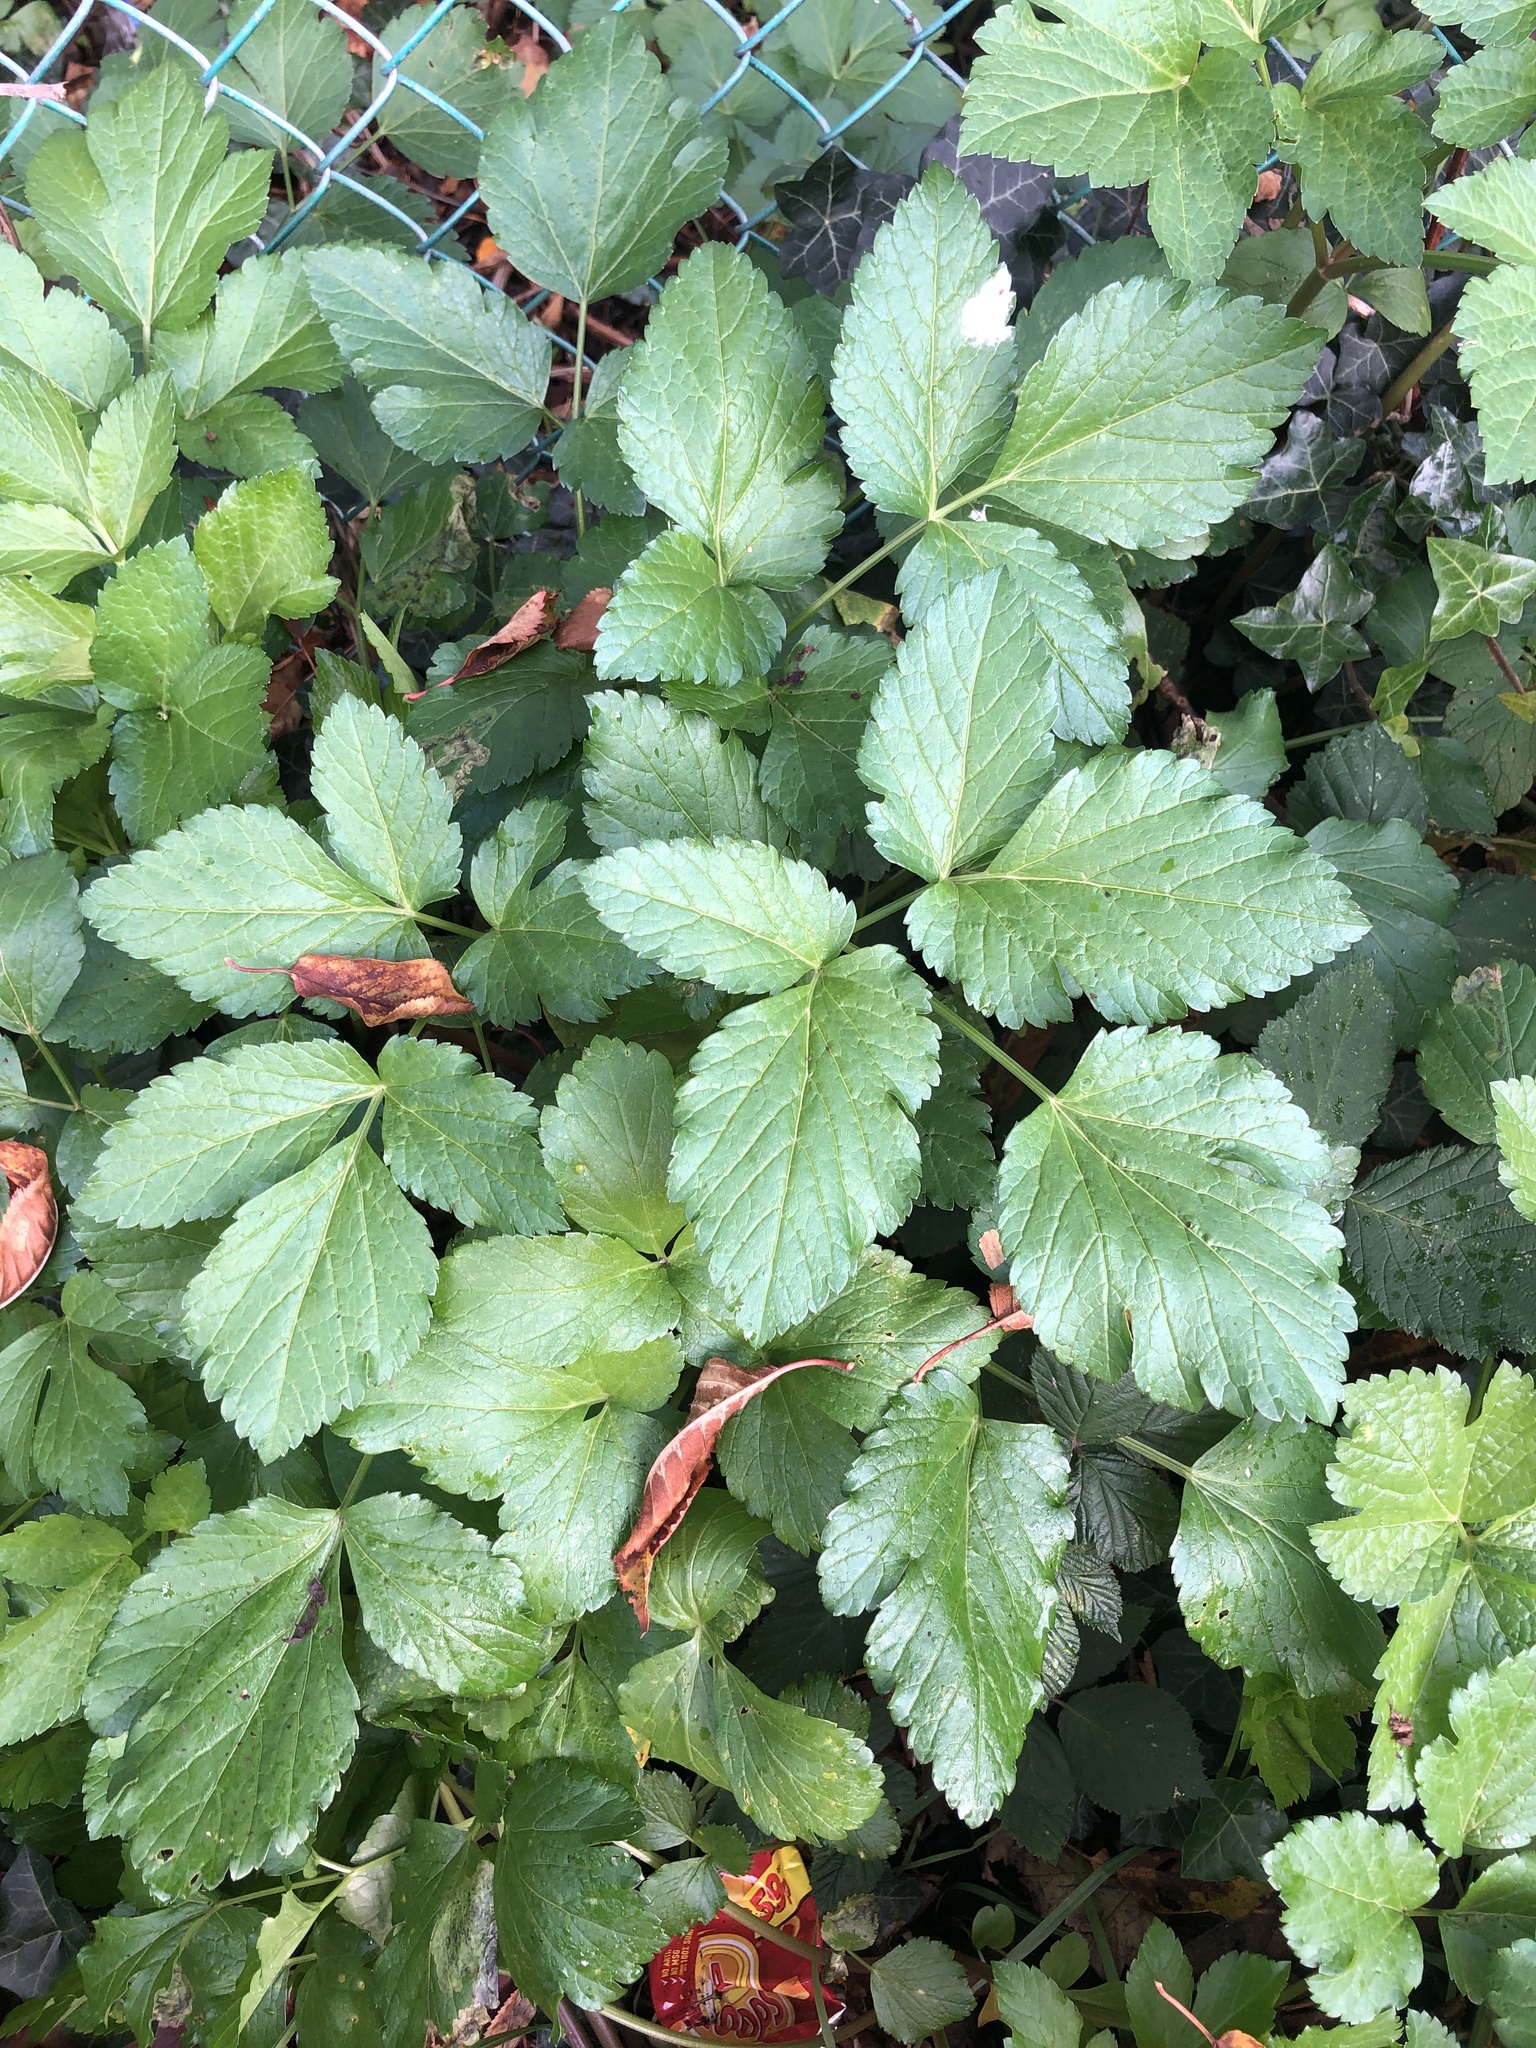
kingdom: Plantae
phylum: Tracheophyta
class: Magnoliopsida
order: Apiales
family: Apiaceae
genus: Smyrnium
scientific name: Smyrnium olusatrum
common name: Alexanders
